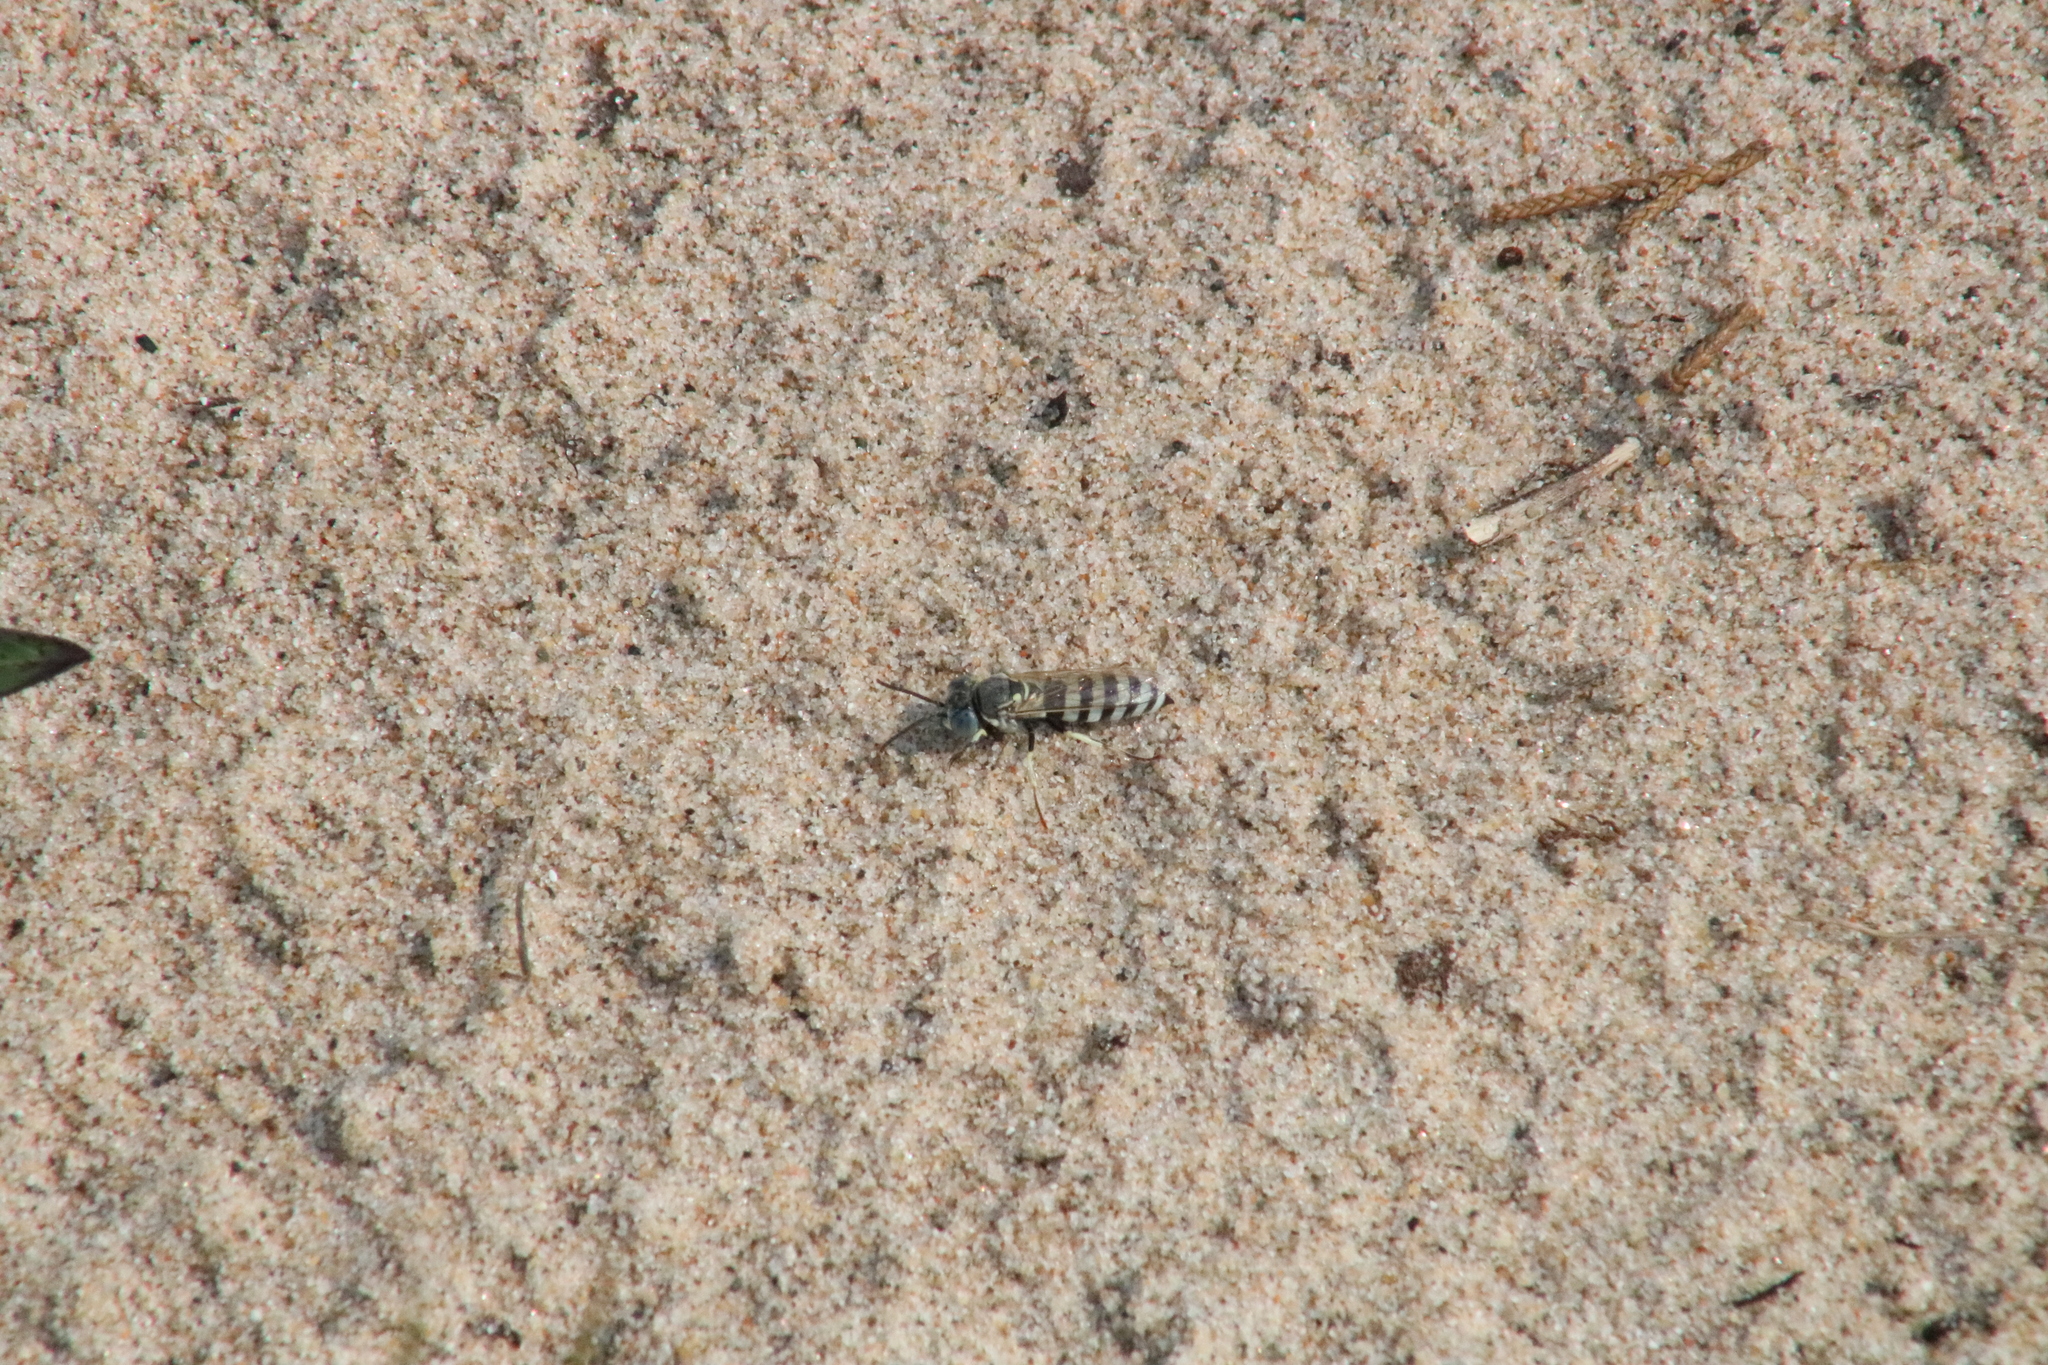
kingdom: Animalia
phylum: Arthropoda
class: Insecta
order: Hymenoptera
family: Crabronidae
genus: Microbembex
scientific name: Microbembex monodonta
